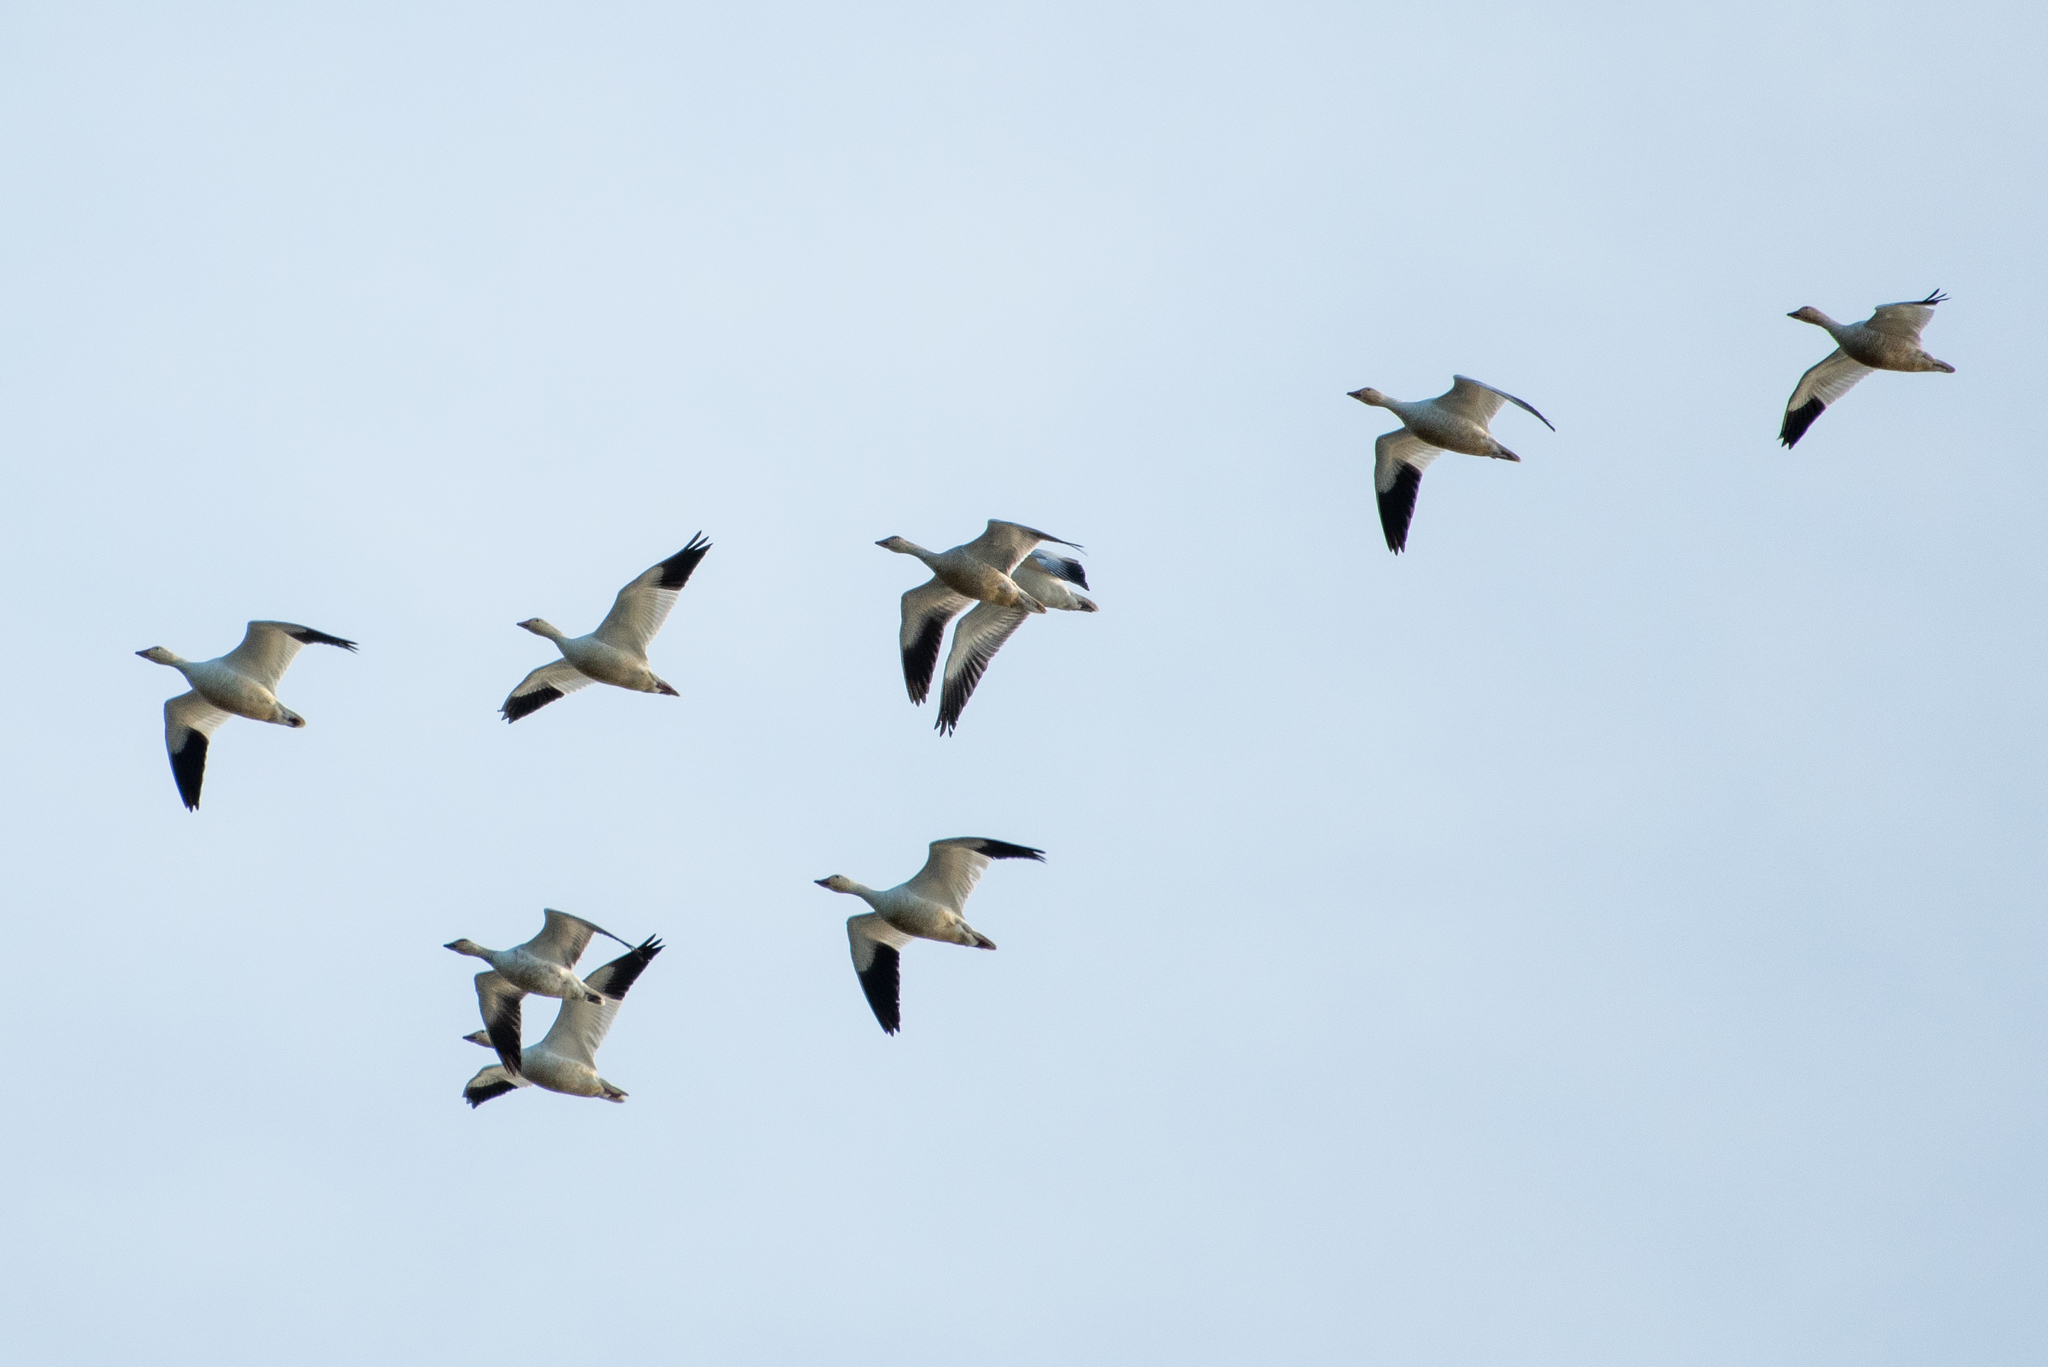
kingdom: Animalia
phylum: Chordata
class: Aves
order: Anseriformes
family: Anatidae
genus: Anser
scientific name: Anser caerulescens
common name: Snow goose
